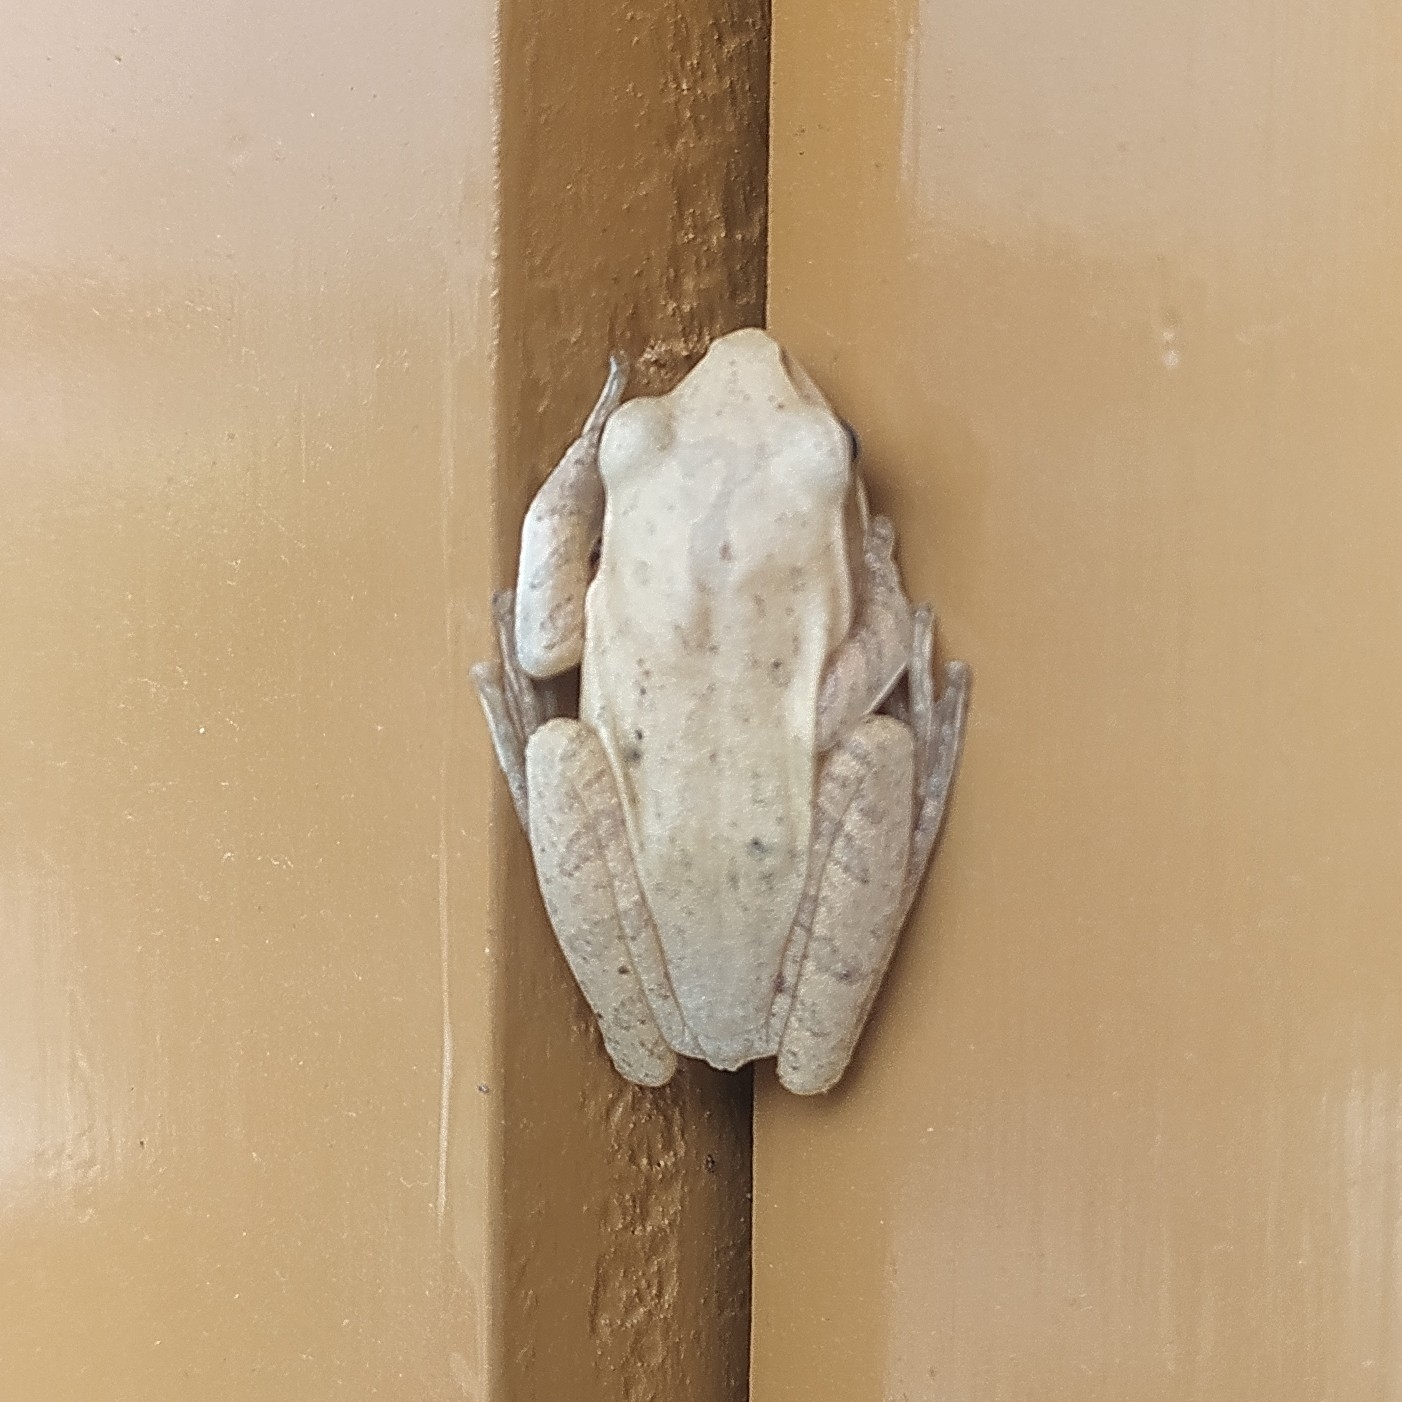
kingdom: Animalia
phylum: Chordata
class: Amphibia
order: Anura
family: Rhacophoridae
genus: Polypedates
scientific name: Polypedates maculatus
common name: Himalayan tree frog
